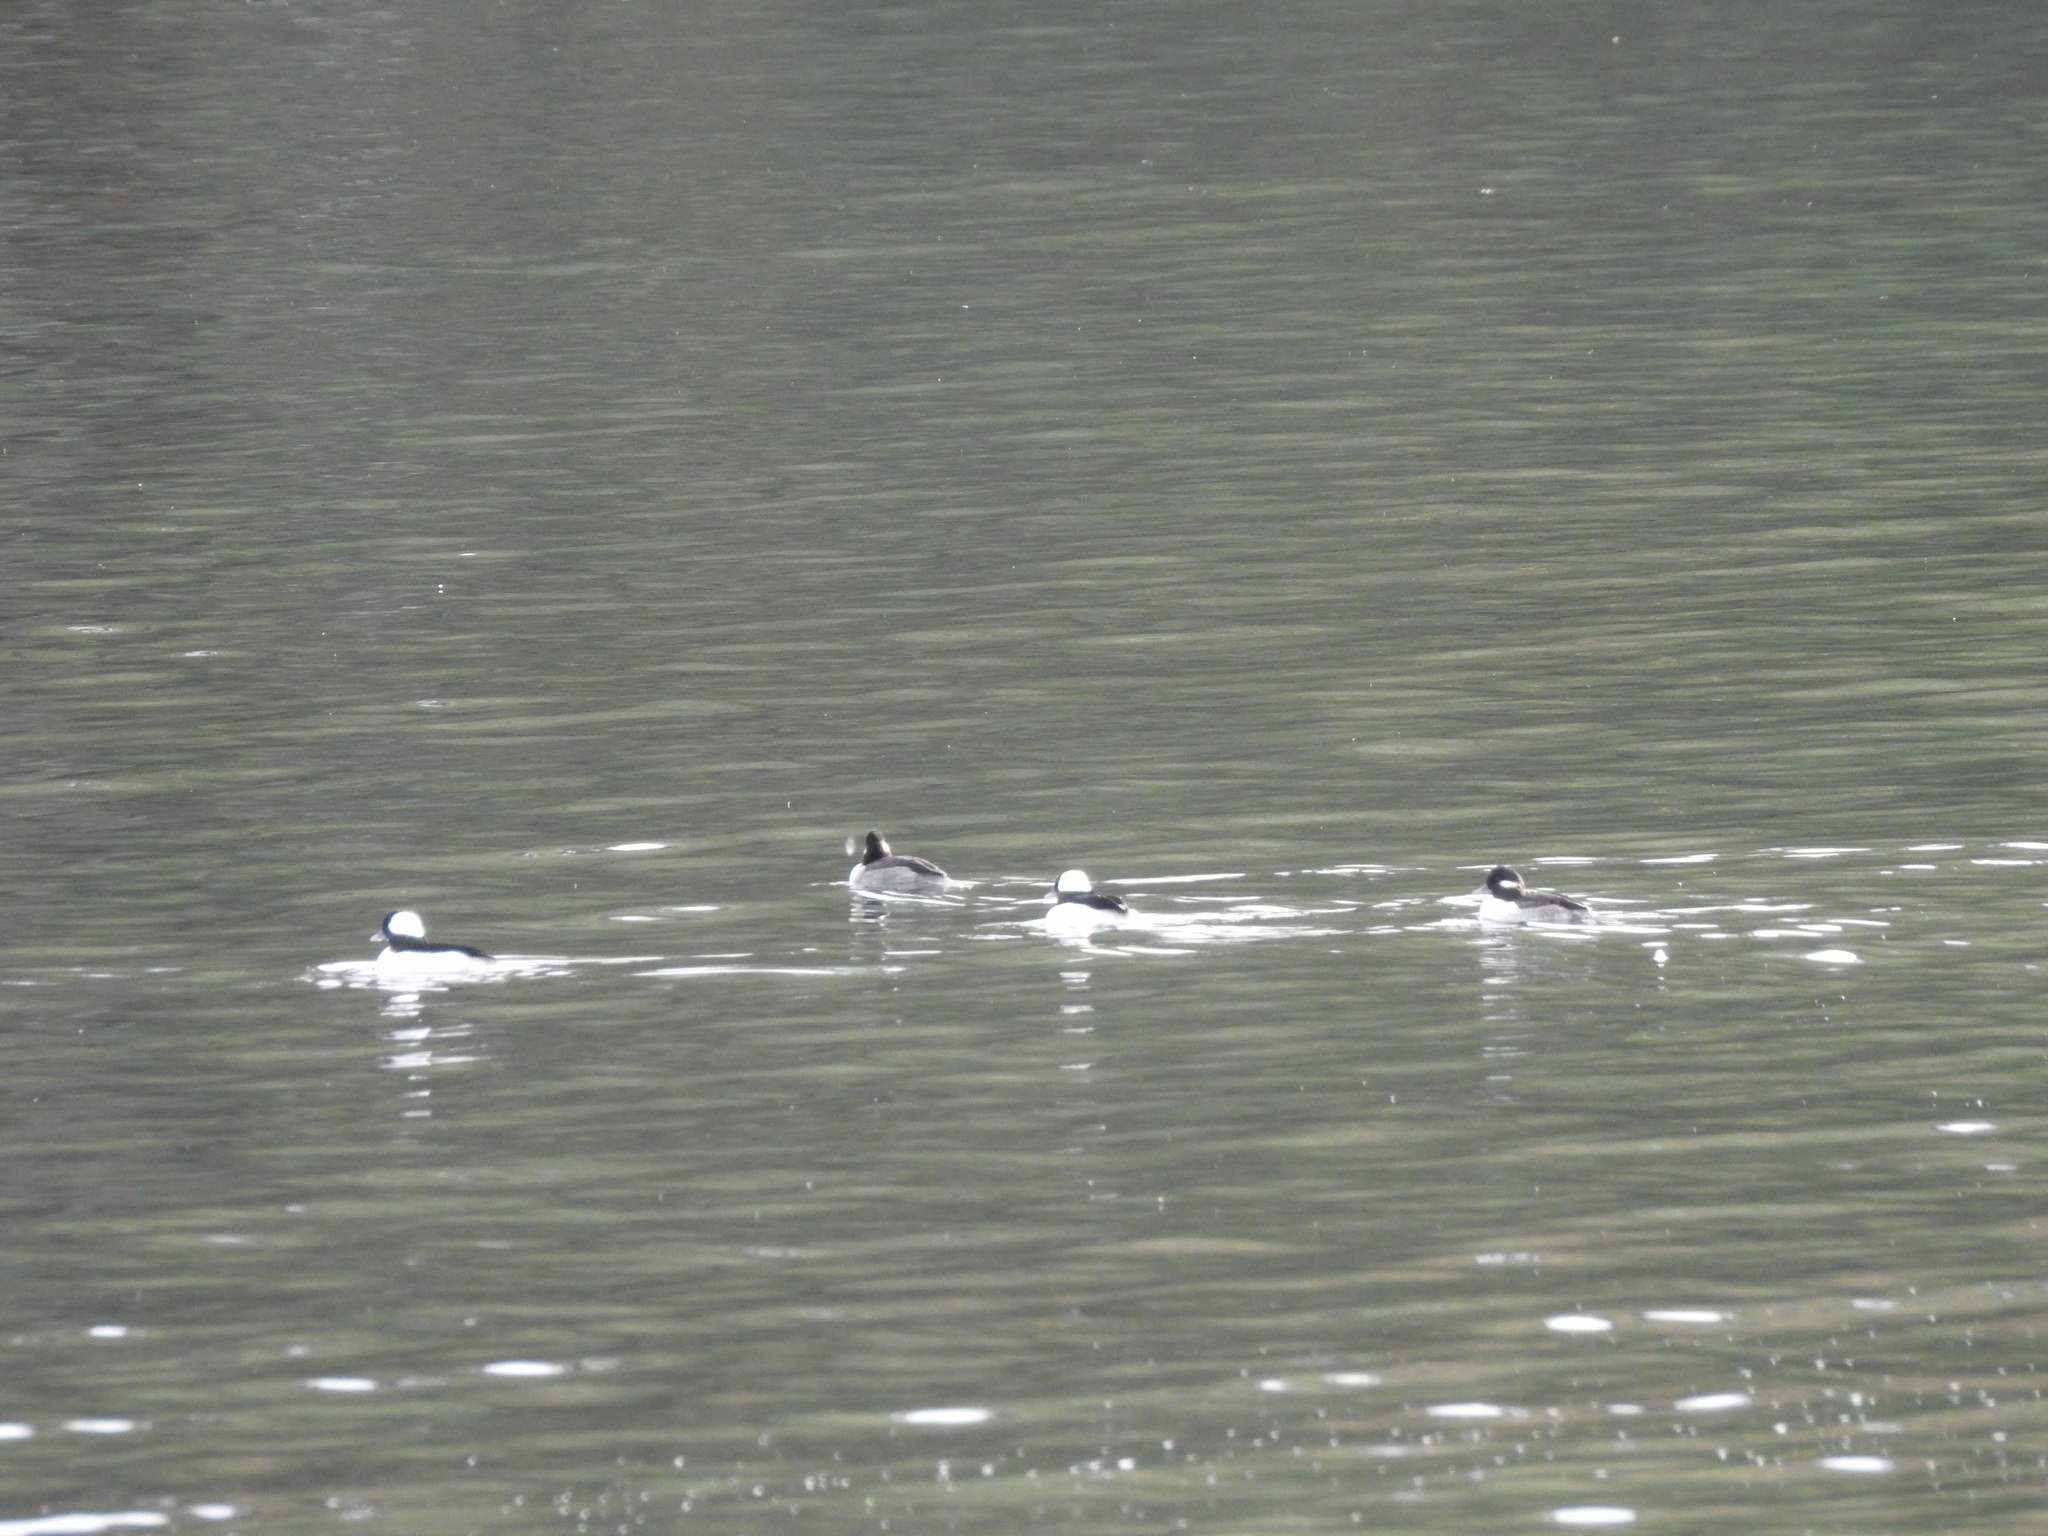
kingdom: Animalia
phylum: Chordata
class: Aves
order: Anseriformes
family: Anatidae
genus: Bucephala
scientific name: Bucephala albeola
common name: Bufflehead
